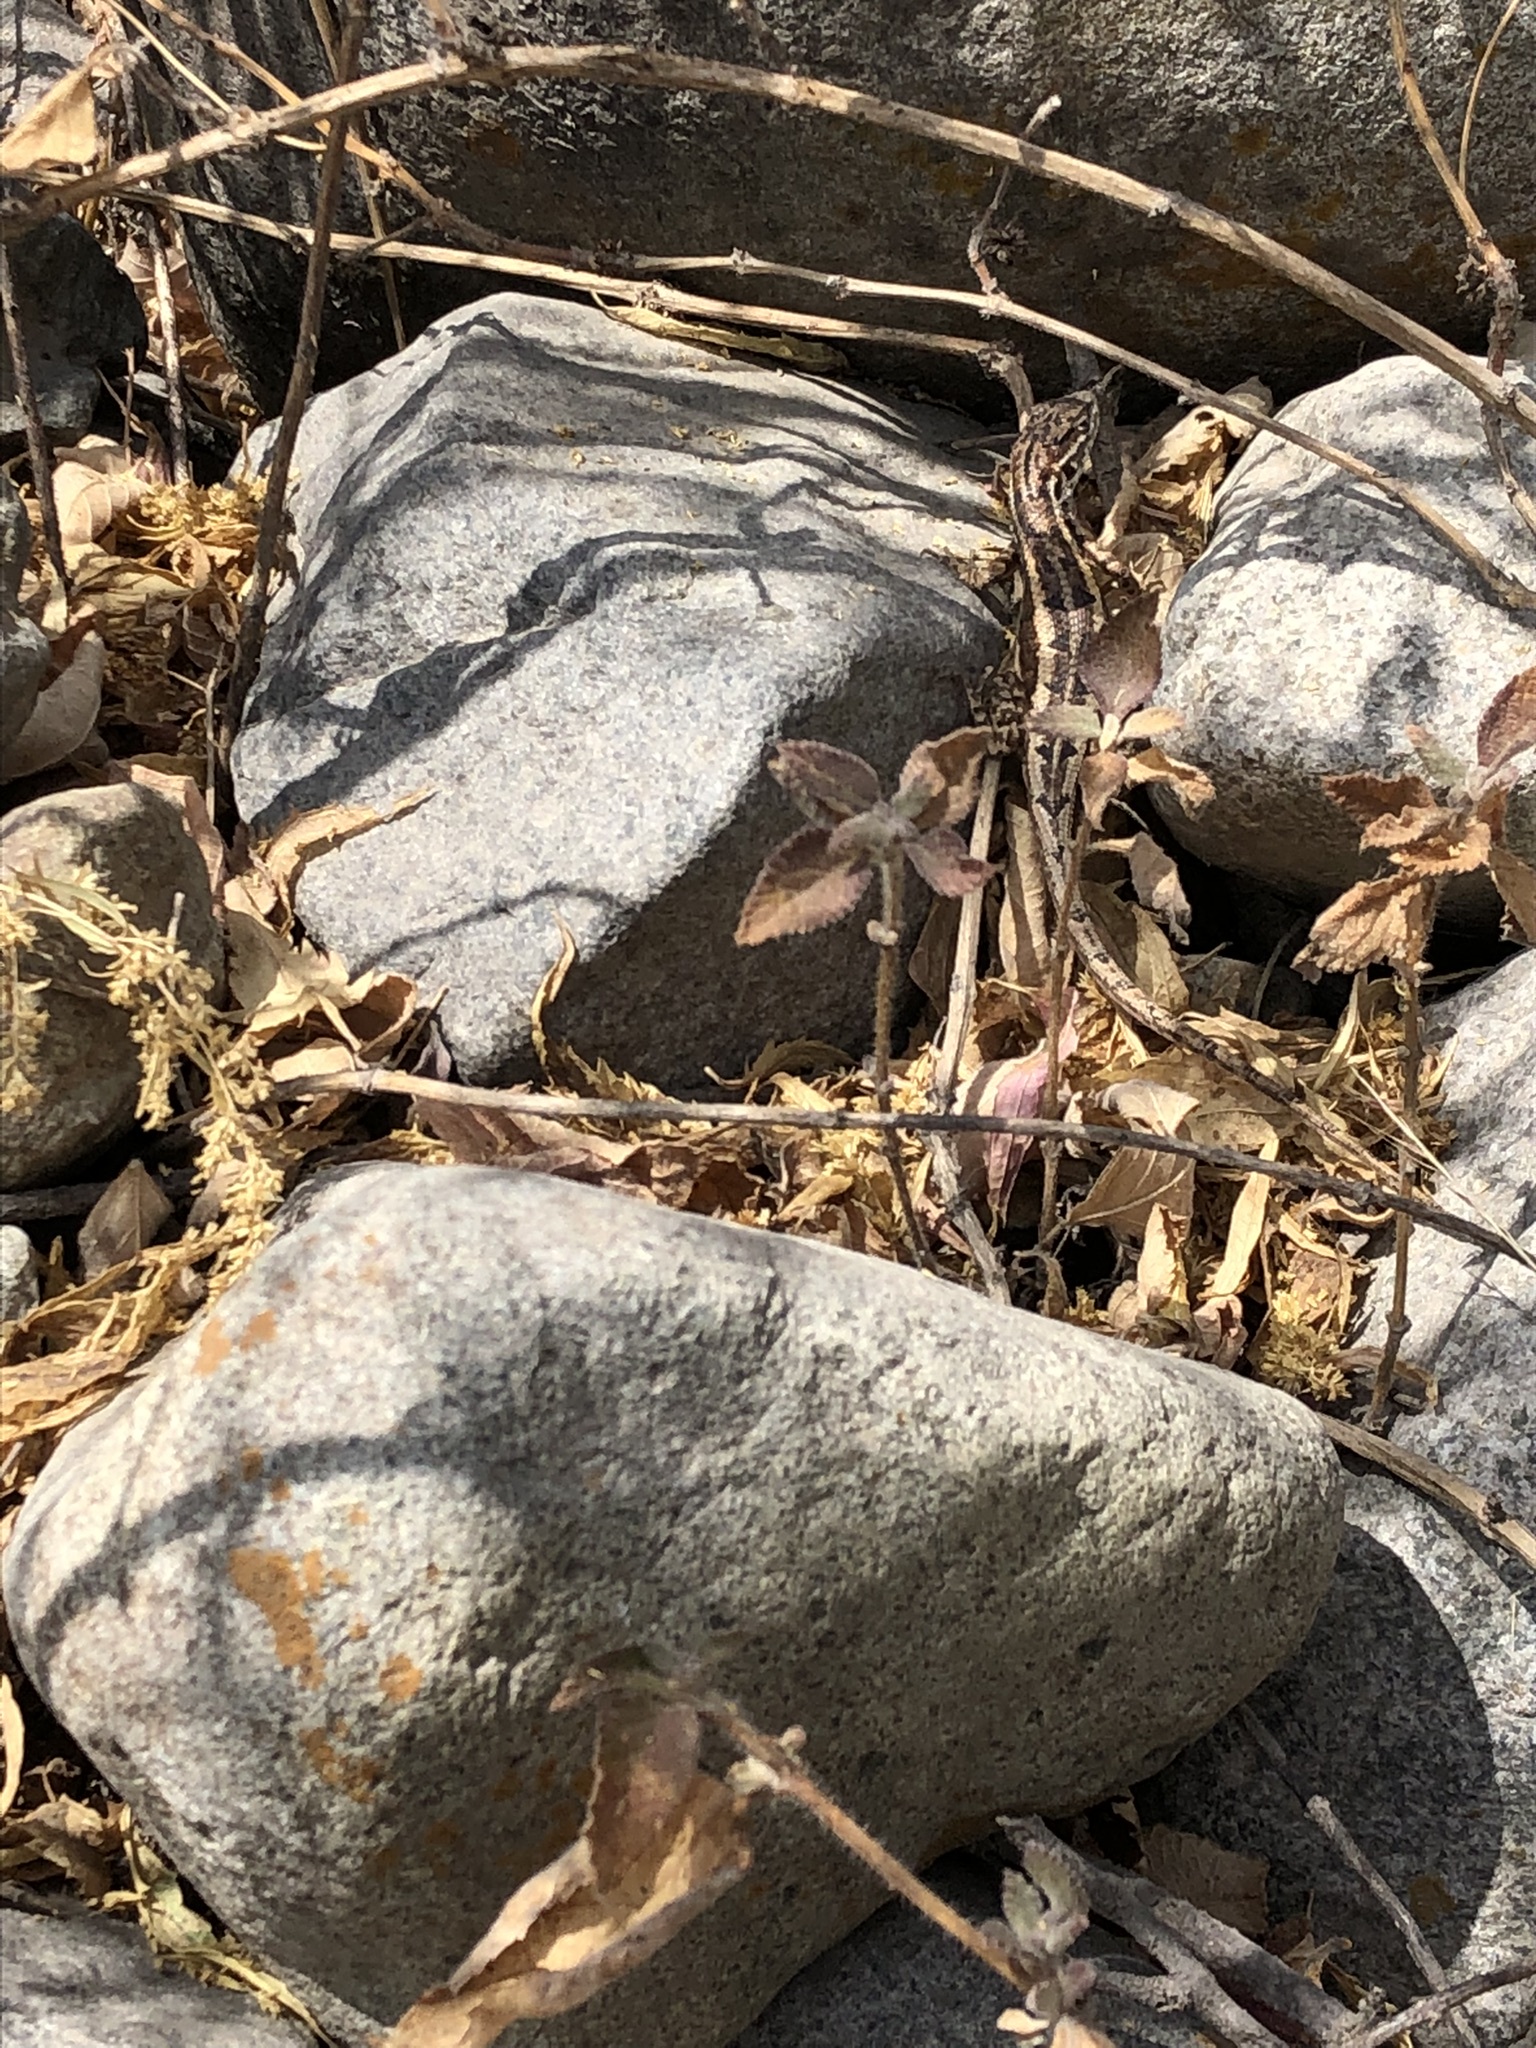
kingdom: Animalia
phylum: Chordata
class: Squamata
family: Tropiduridae
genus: Stenocercus
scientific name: Stenocercus ornatissimus
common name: Lesser ornate whorltail iguana
